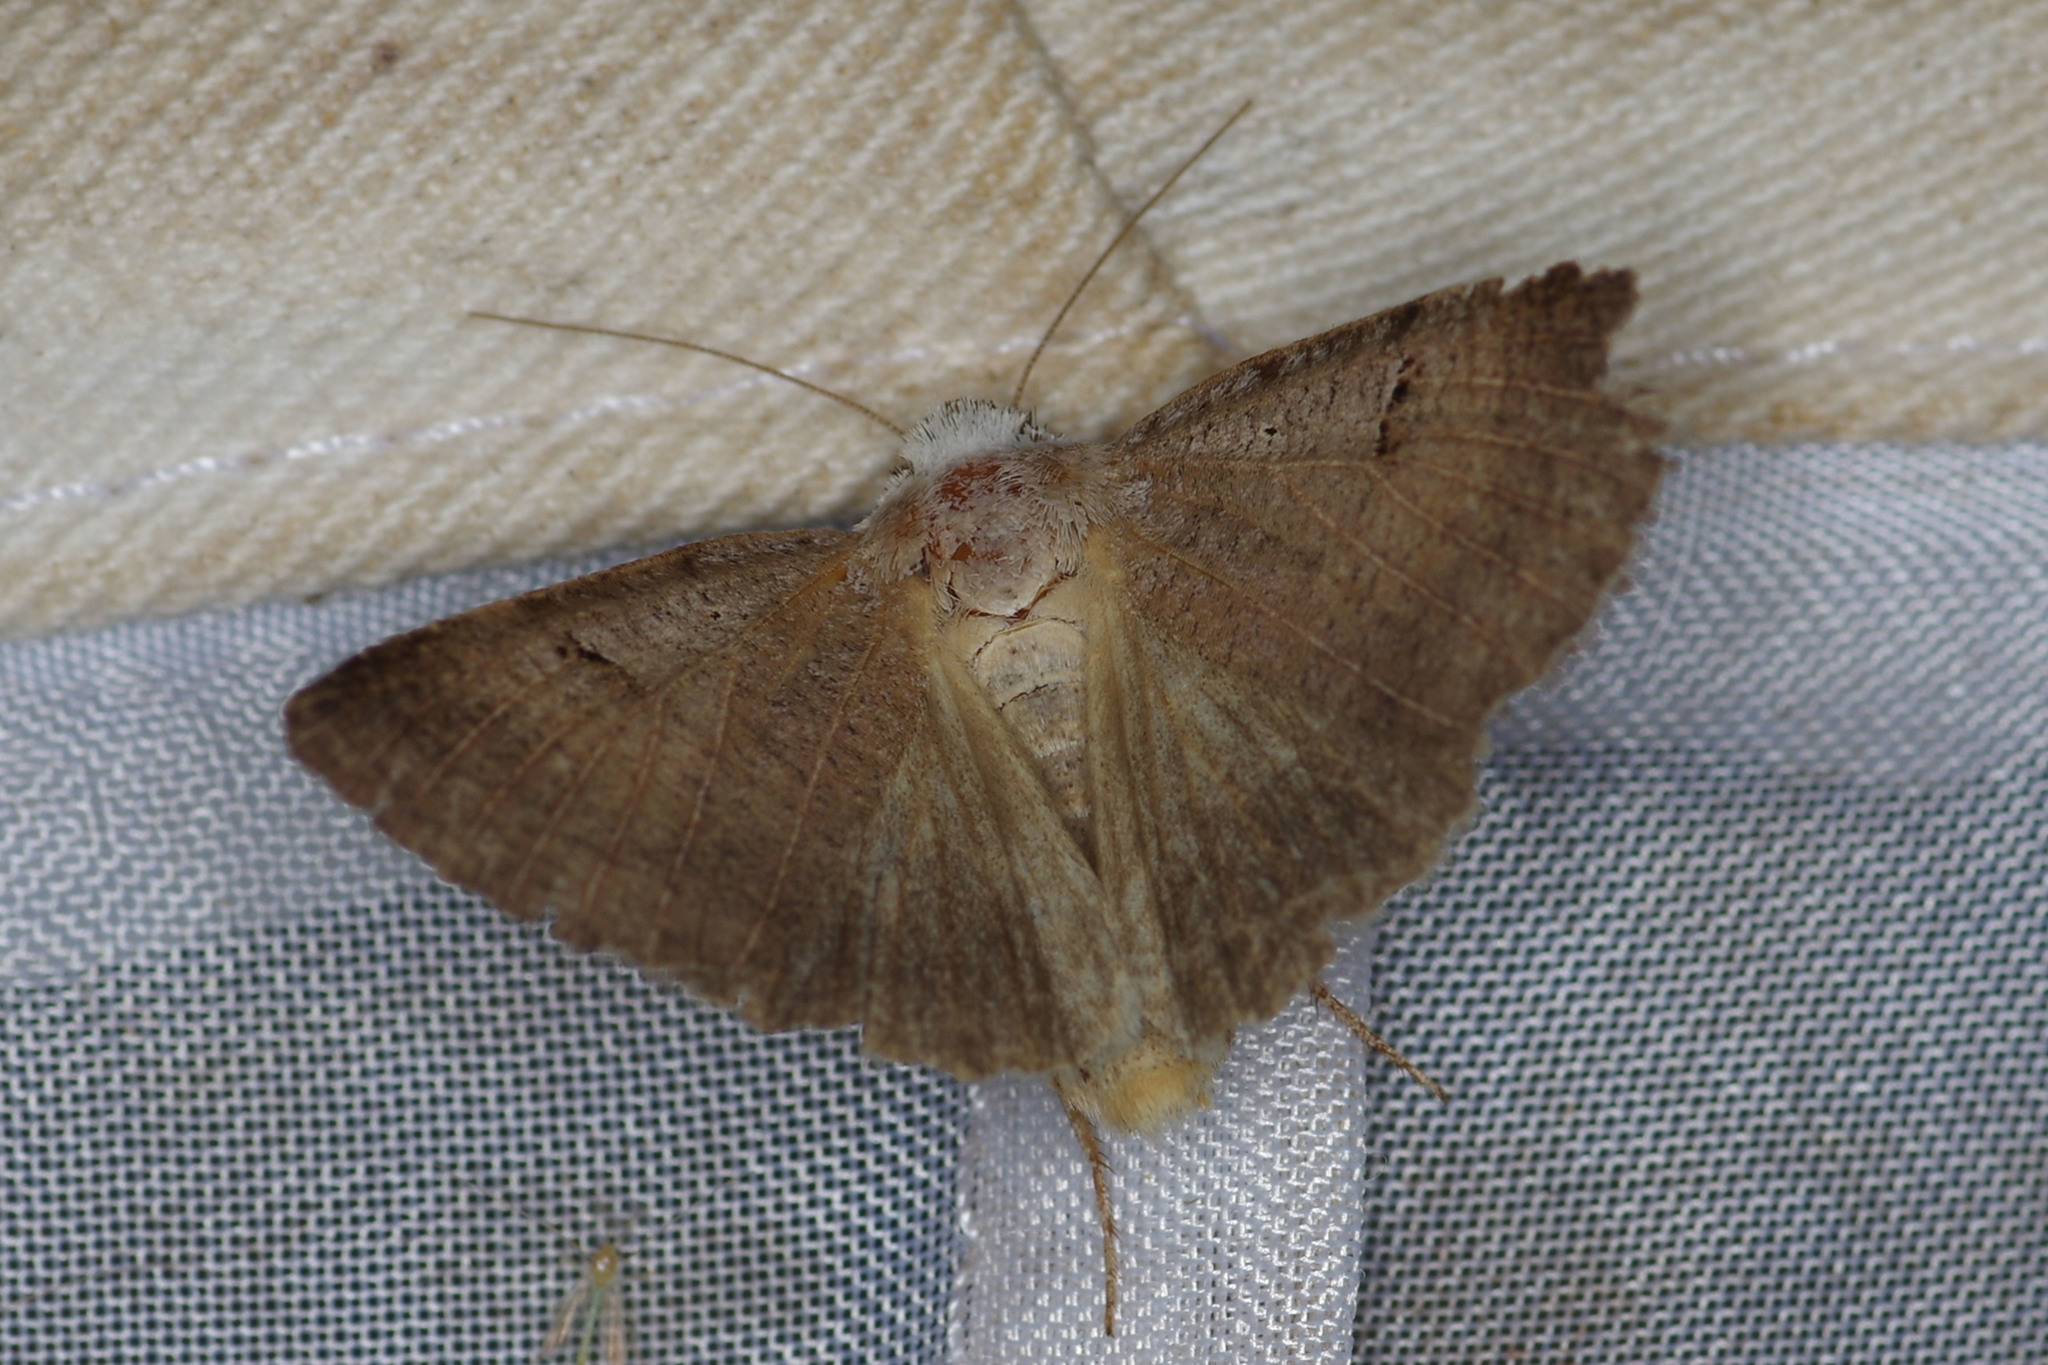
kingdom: Animalia
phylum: Arthropoda
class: Insecta
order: Lepidoptera
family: Erebidae
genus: Lygephila
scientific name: Lygephila craccae
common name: Scarce blackneck
